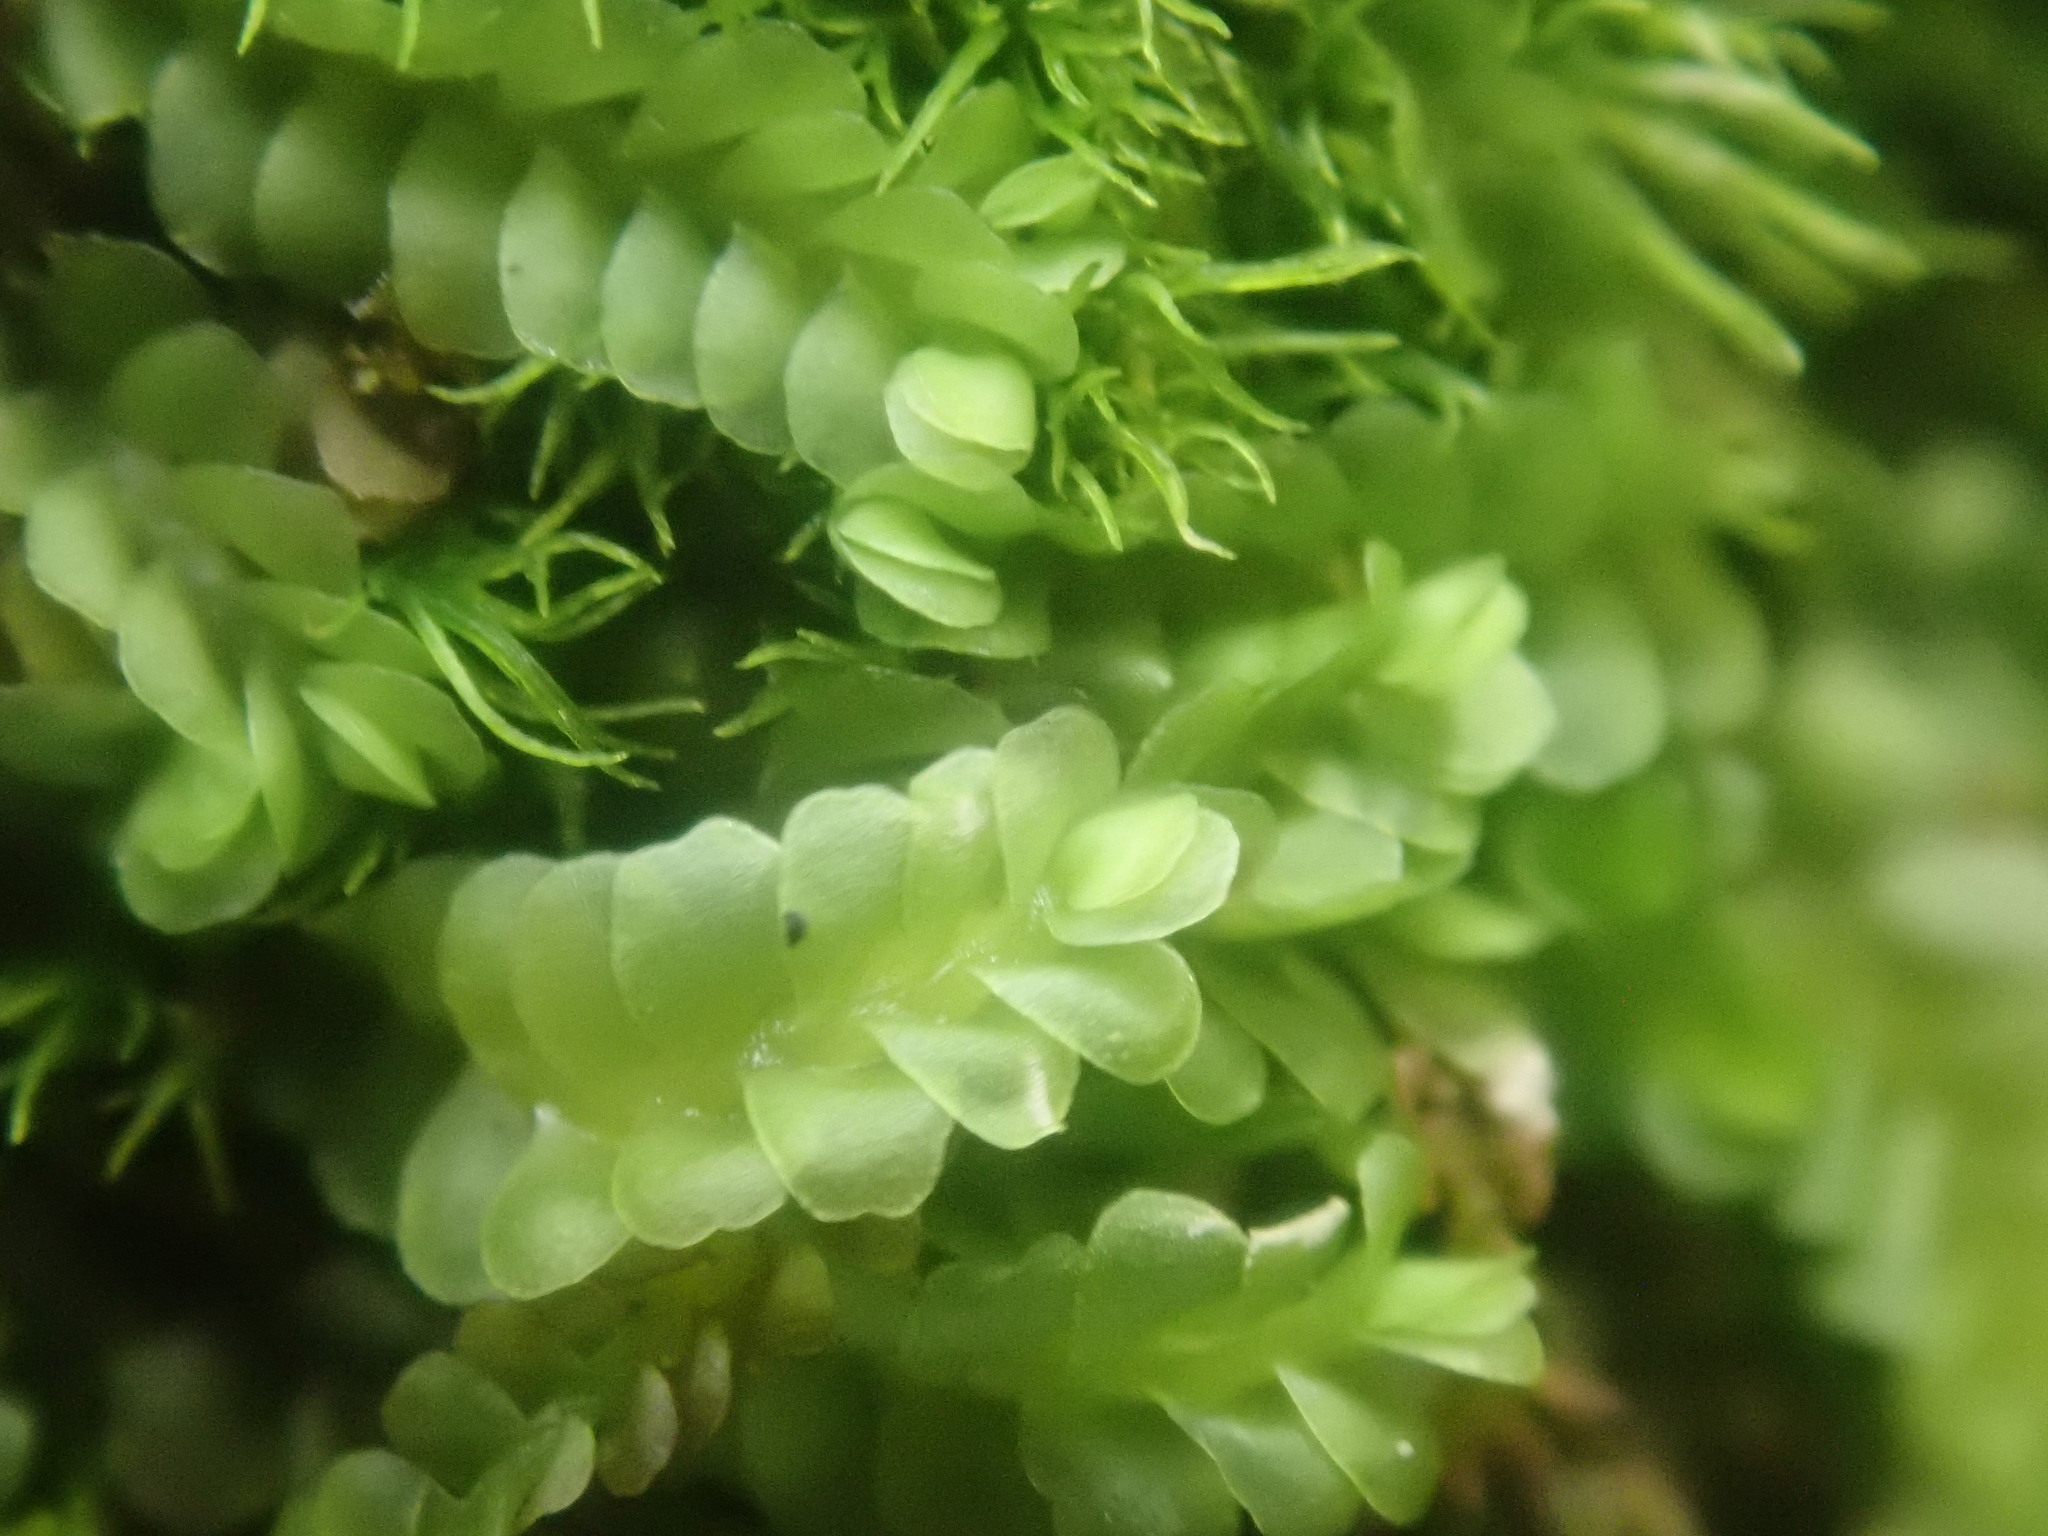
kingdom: Plantae
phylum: Marchantiophyta
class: Jungermanniopsida
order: Jungermanniales
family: Adelanthaceae
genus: Syzygiella
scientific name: Syzygiella autumnalis
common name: Jameson's liverwort
